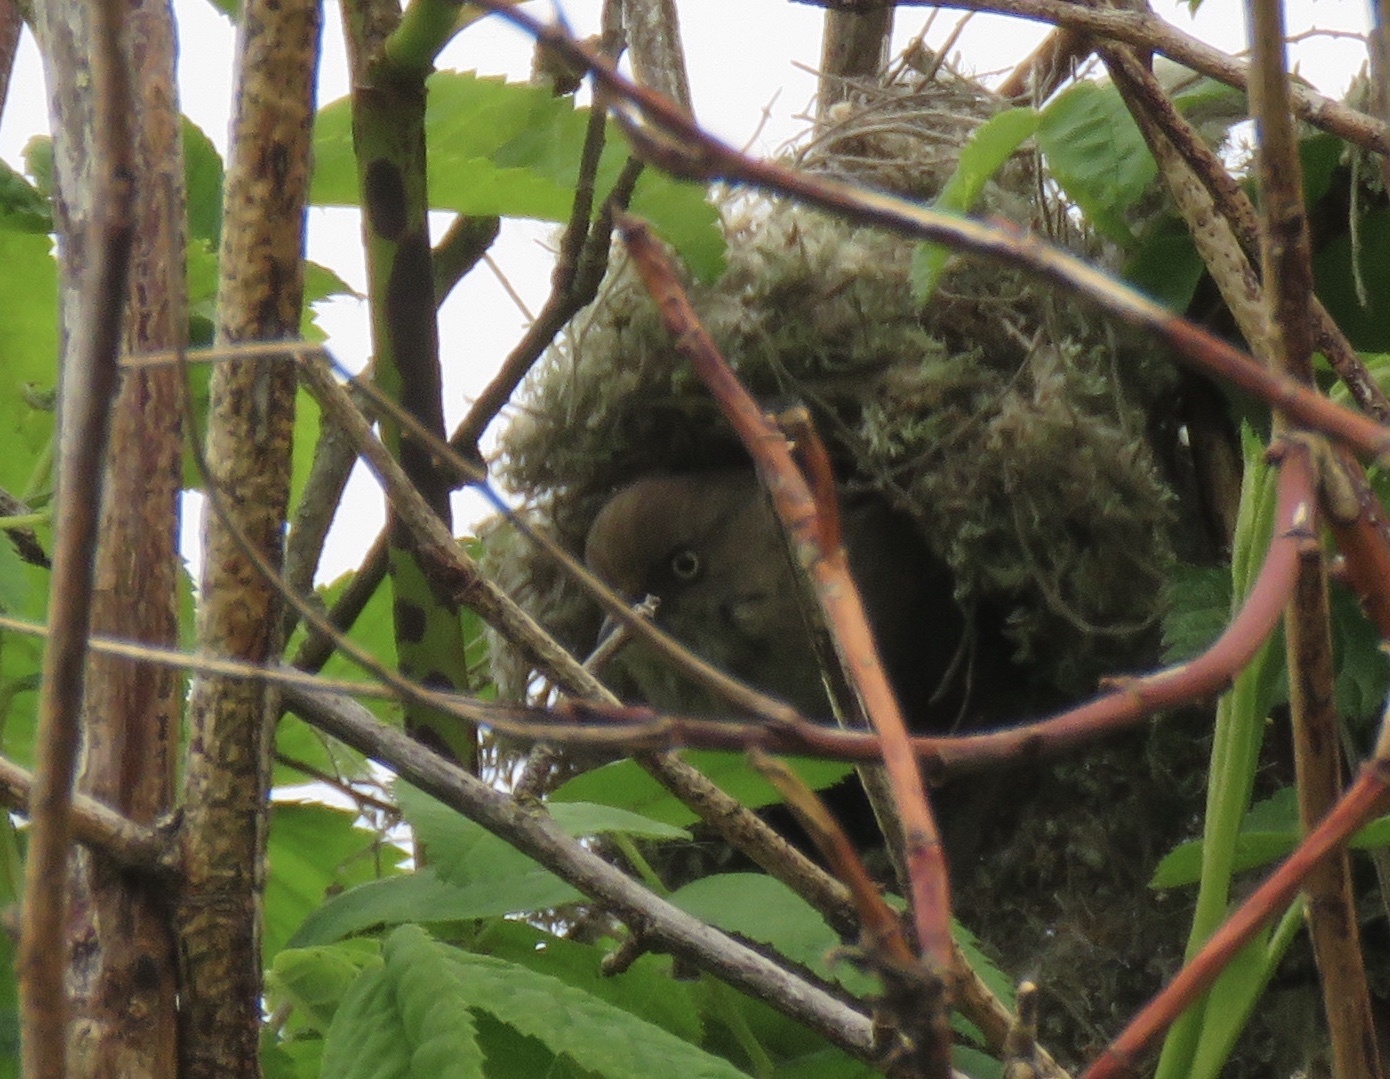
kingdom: Animalia
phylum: Chordata
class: Aves
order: Passeriformes
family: Aegithalidae
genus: Psaltriparus
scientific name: Psaltriparus minimus
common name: American bushtit
